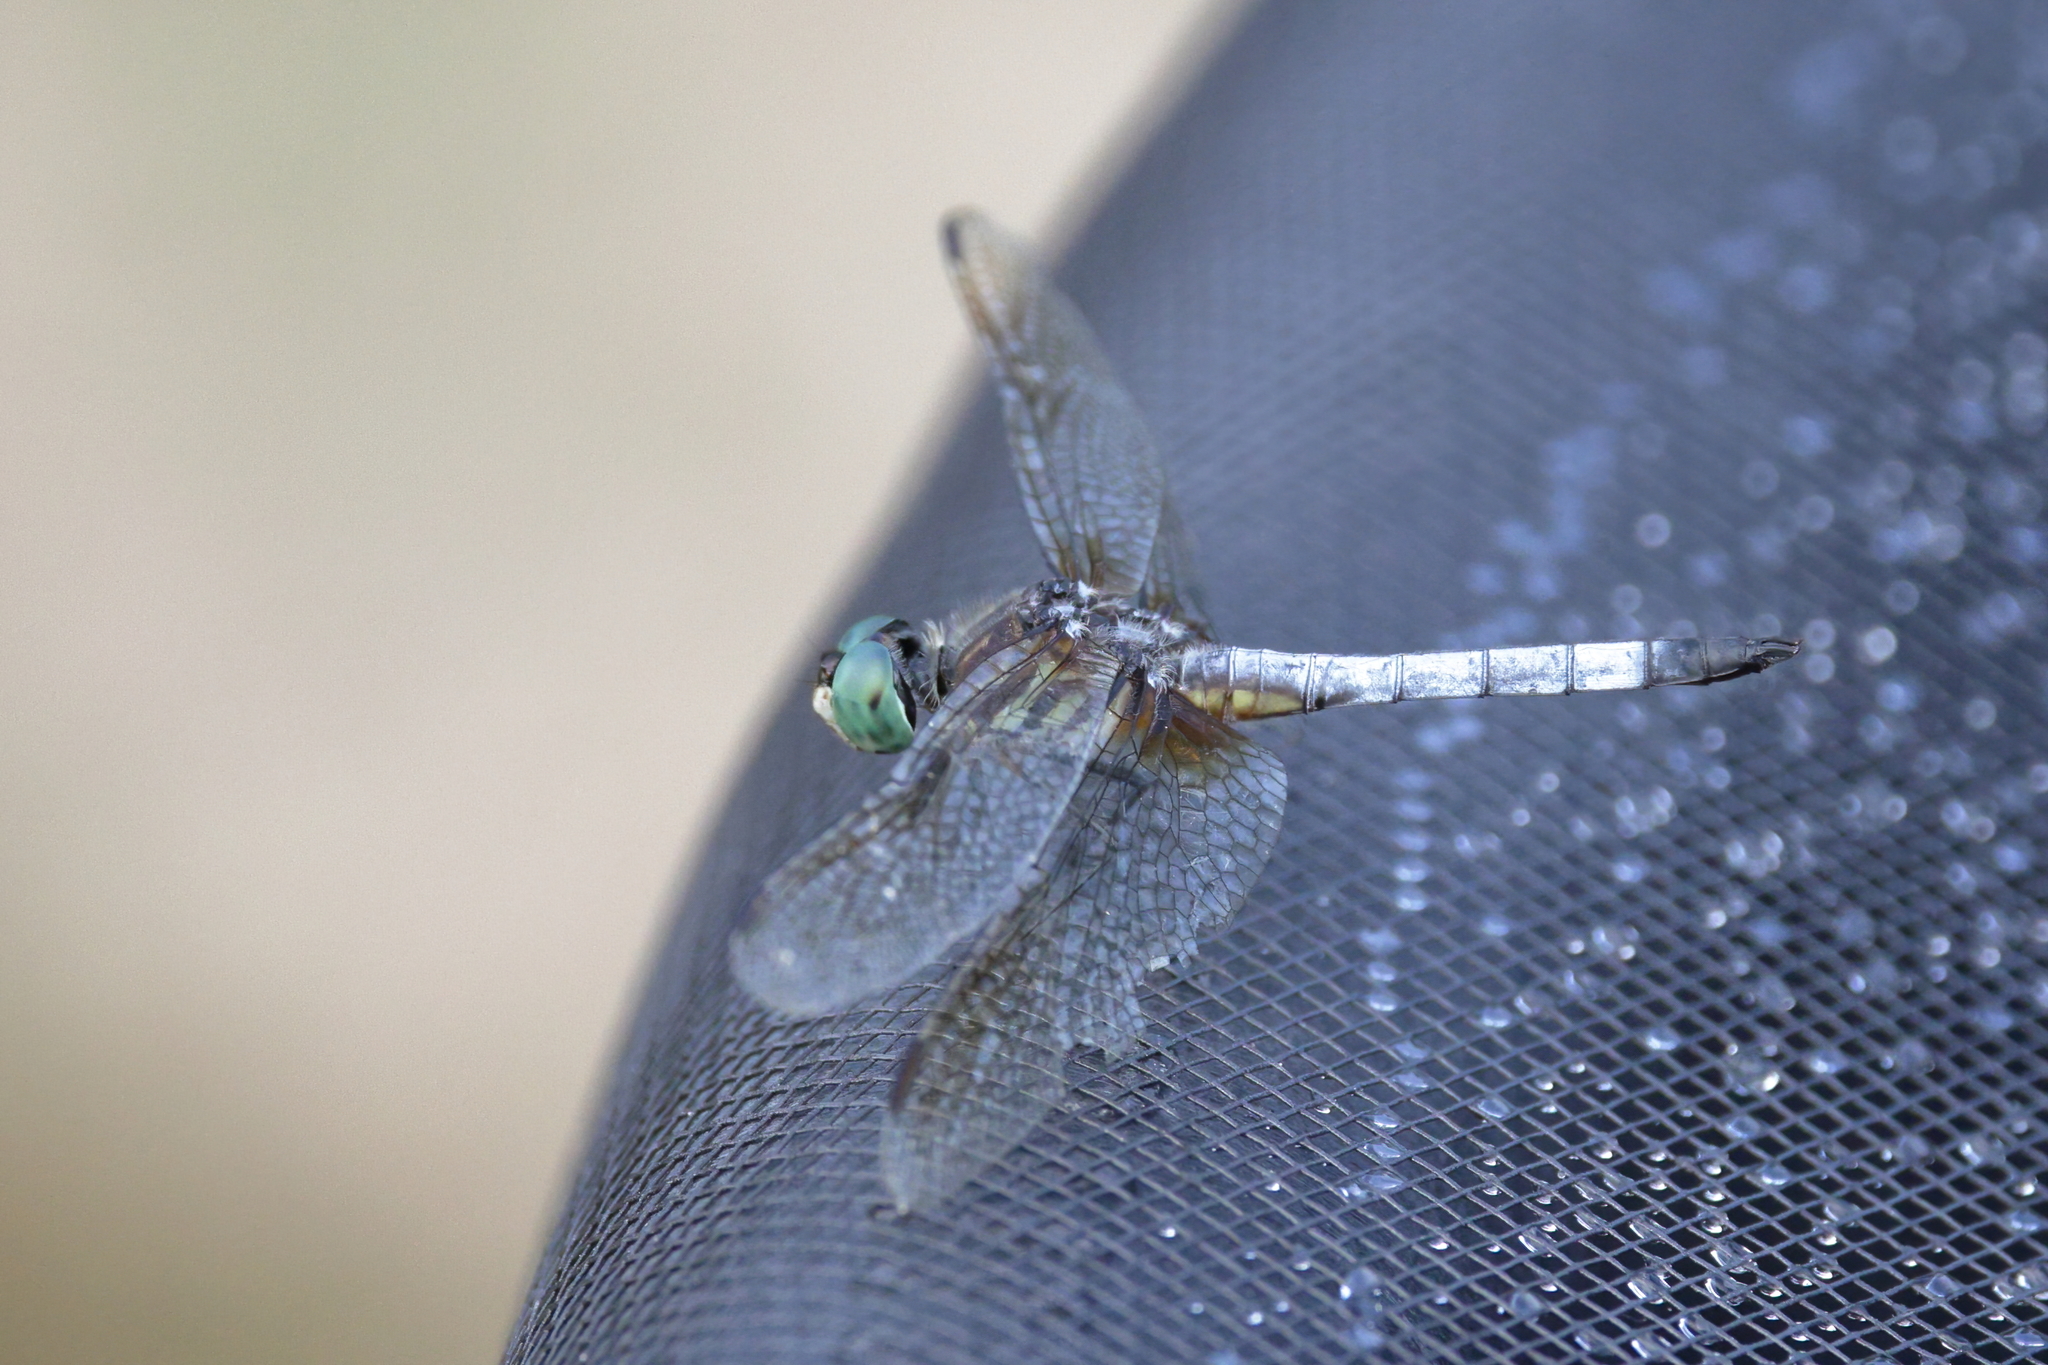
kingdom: Animalia
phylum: Arthropoda
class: Insecta
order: Odonata
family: Libellulidae
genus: Pachydiplax
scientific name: Pachydiplax longipennis
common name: Blue dasher
